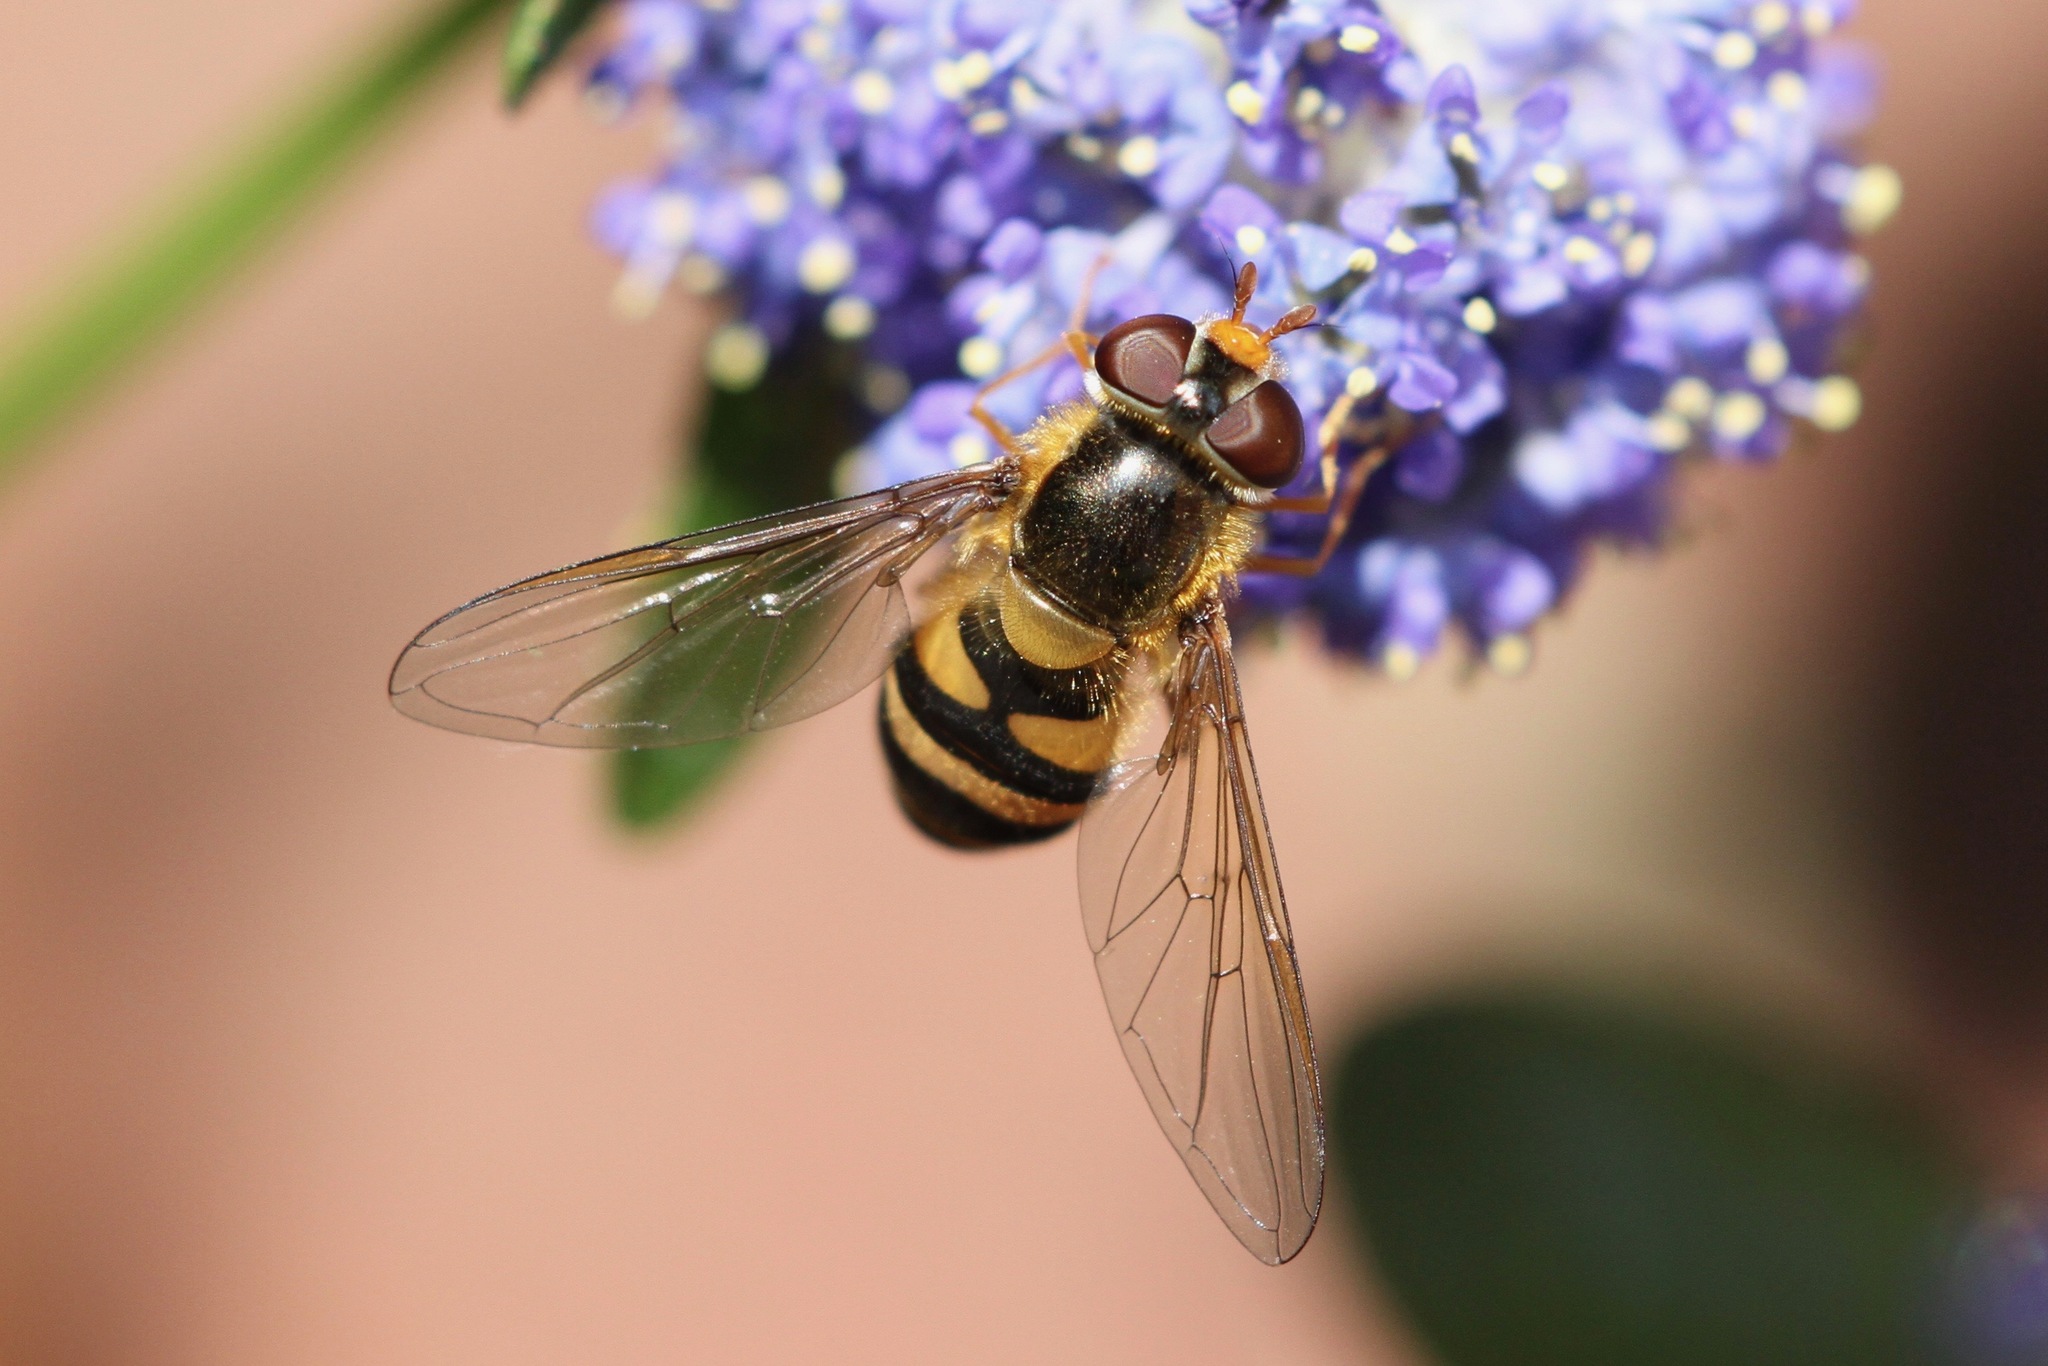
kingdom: Animalia
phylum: Arthropoda
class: Insecta
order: Diptera
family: Syrphidae
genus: Epistrophe
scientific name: Epistrophe nitidicollis
